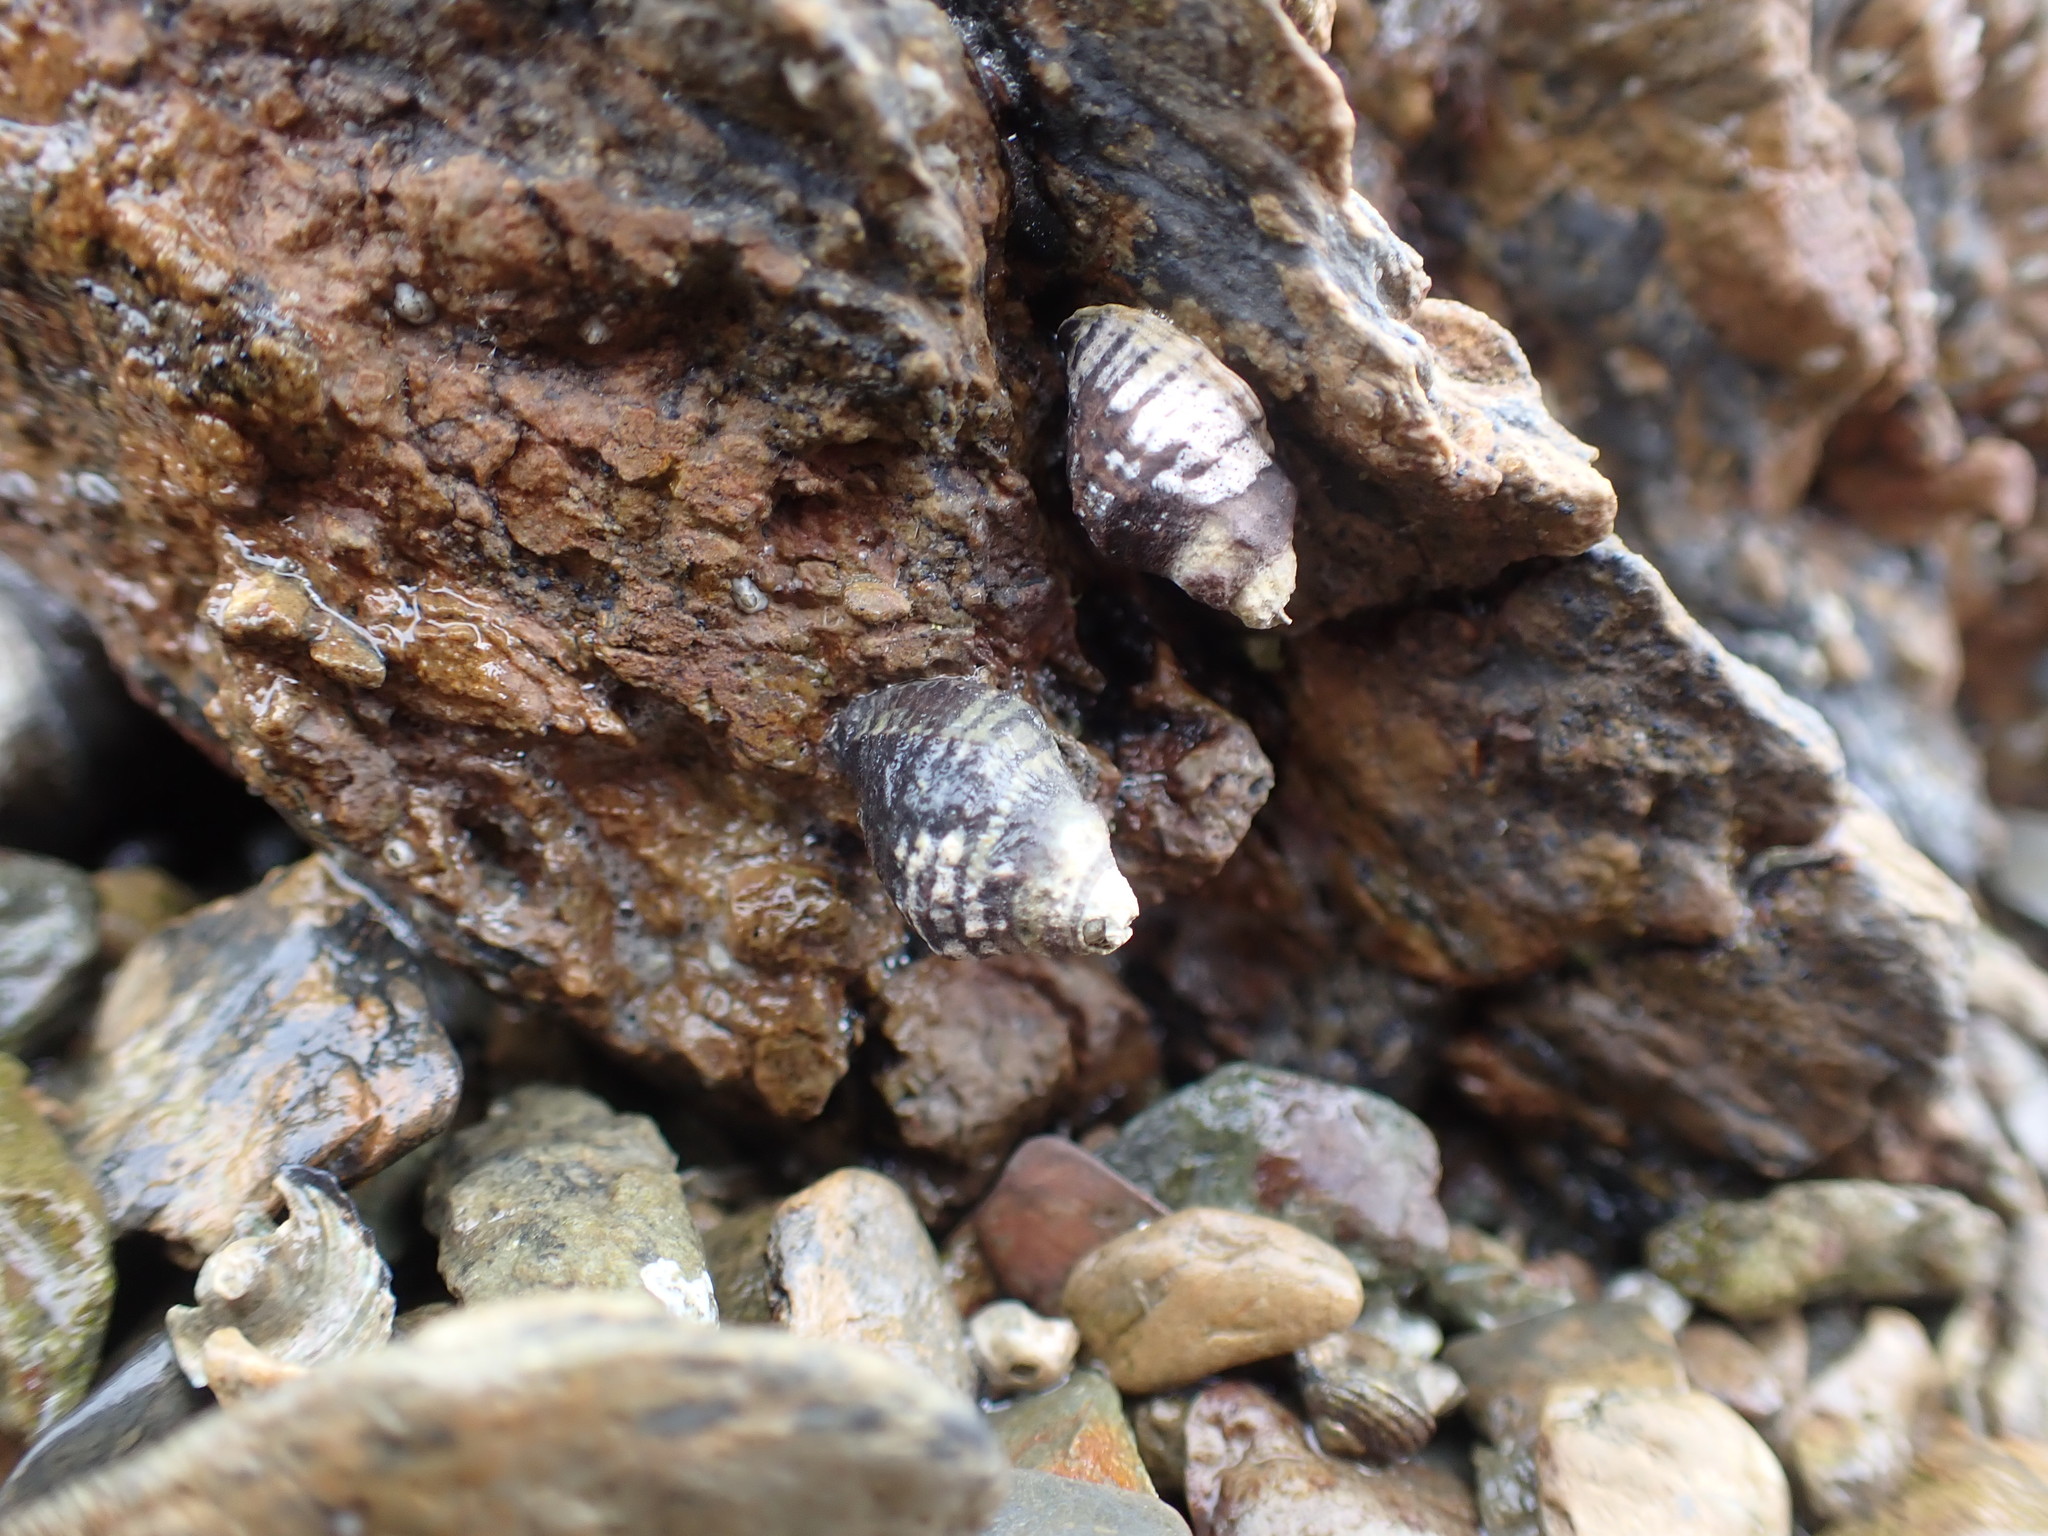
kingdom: Animalia
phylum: Mollusca
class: Gastropoda
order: Neogastropoda
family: Muricidae
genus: Haustrum
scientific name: Haustrum albomarginatum
